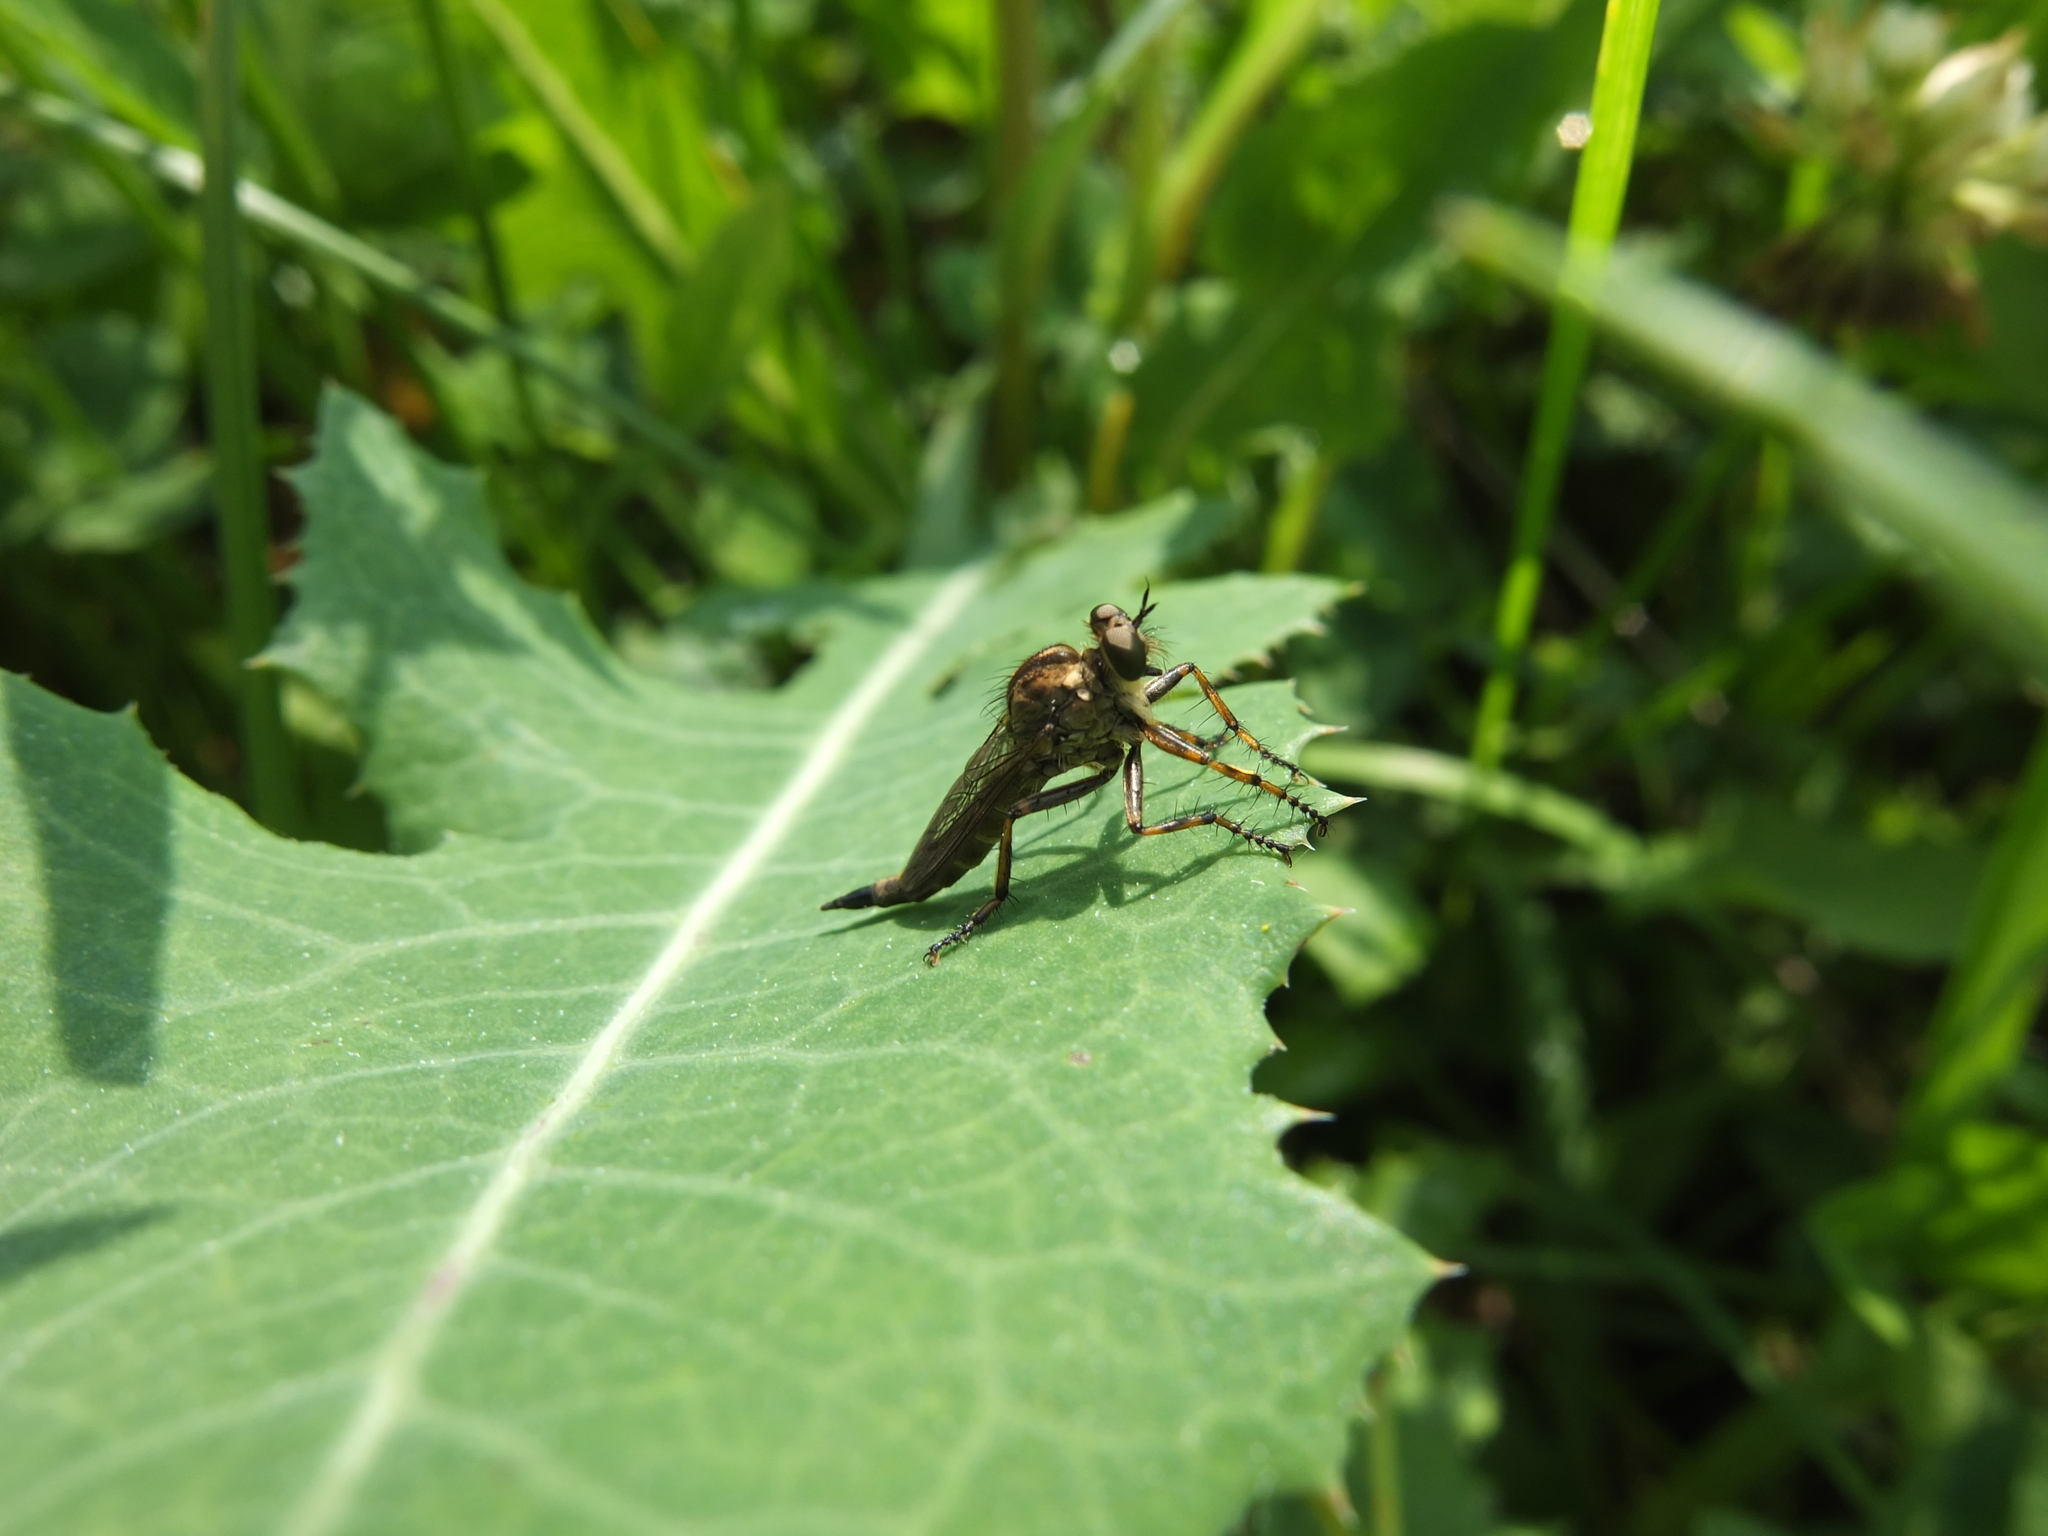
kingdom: Animalia
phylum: Arthropoda
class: Insecta
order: Diptera
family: Asilidae
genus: Epitriptus
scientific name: Epitriptus cingulatus
